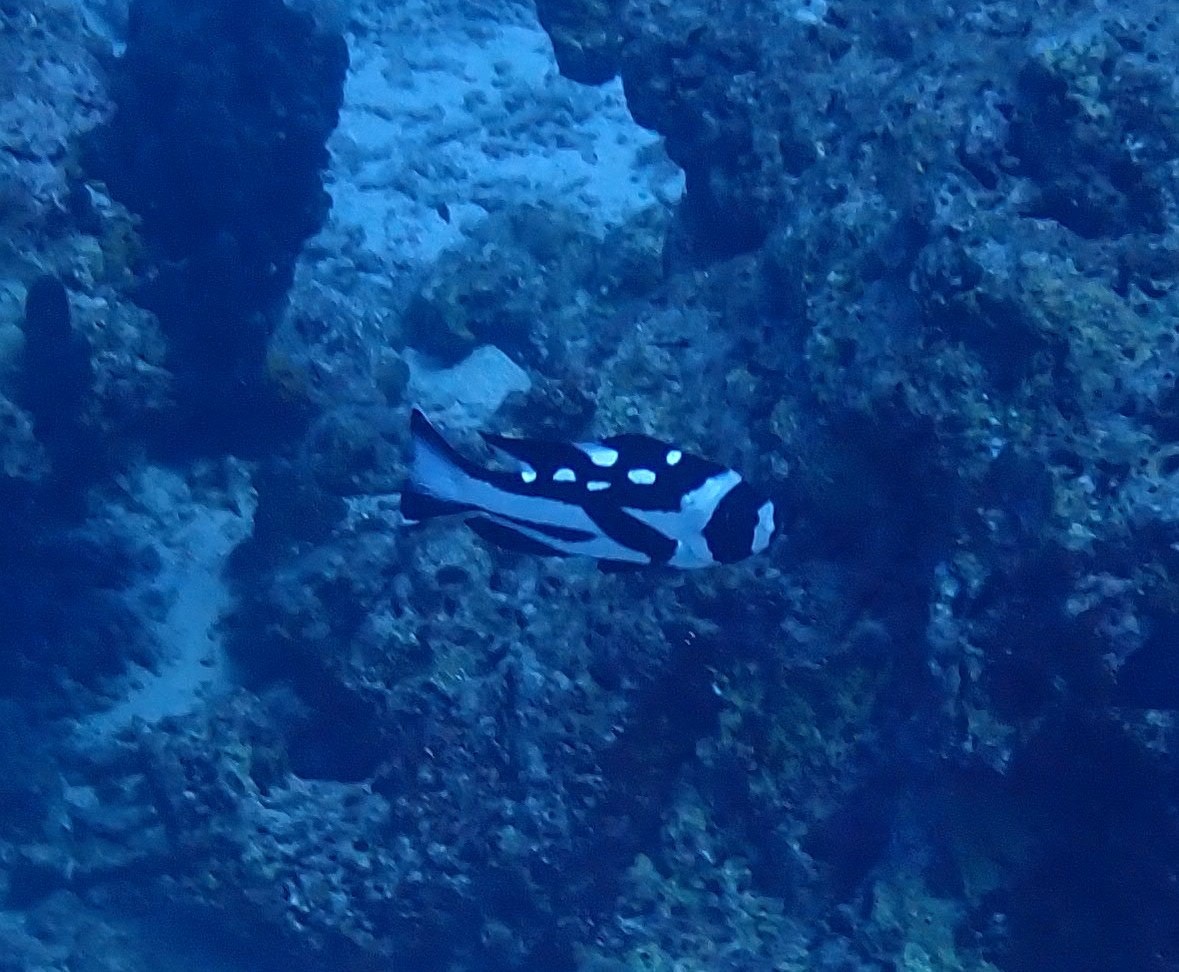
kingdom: Animalia
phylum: Chordata
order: Perciformes
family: Lutjanidae
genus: Macolor
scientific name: Macolor niger
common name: Black snapper
